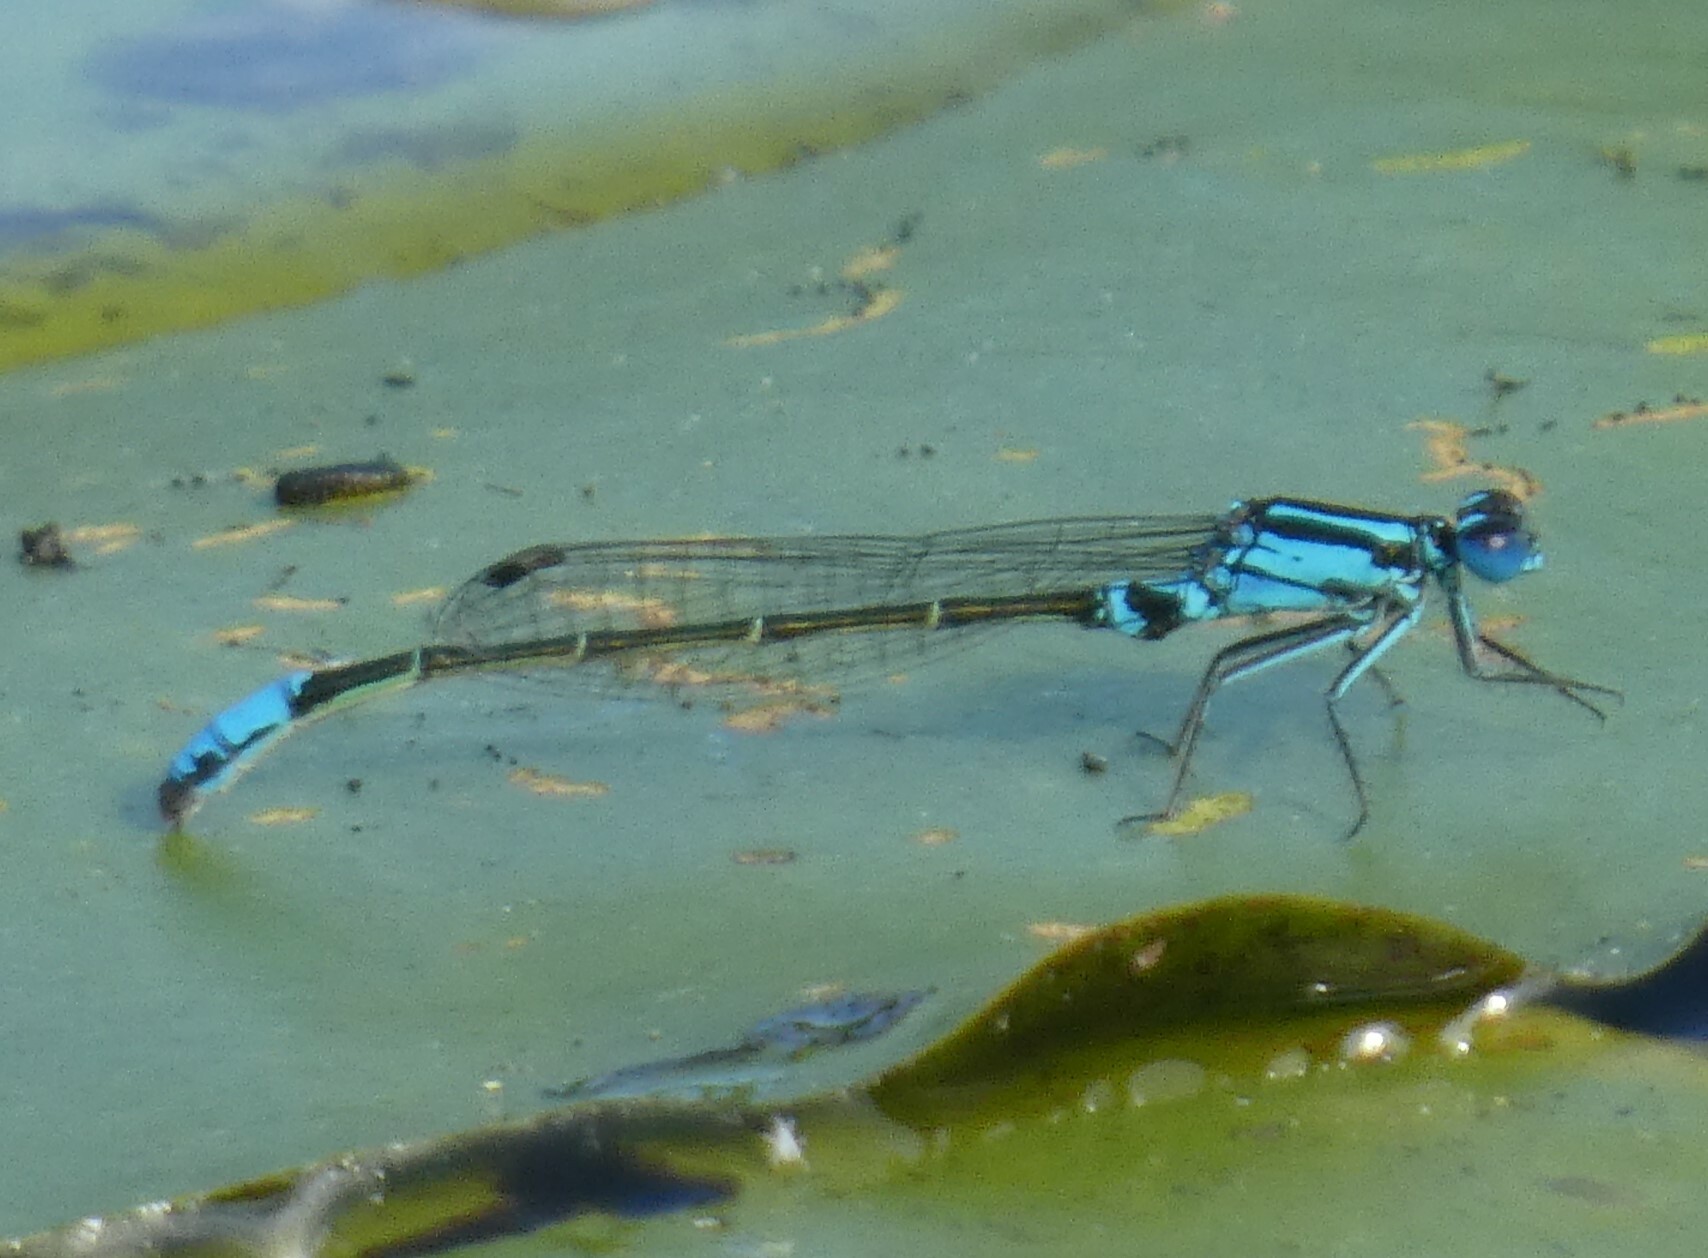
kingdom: Animalia
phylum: Arthropoda
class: Insecta
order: Odonata
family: Coenagrionidae
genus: Ischnura
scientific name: Ischnura kellicotti
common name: Lilypad forktail
